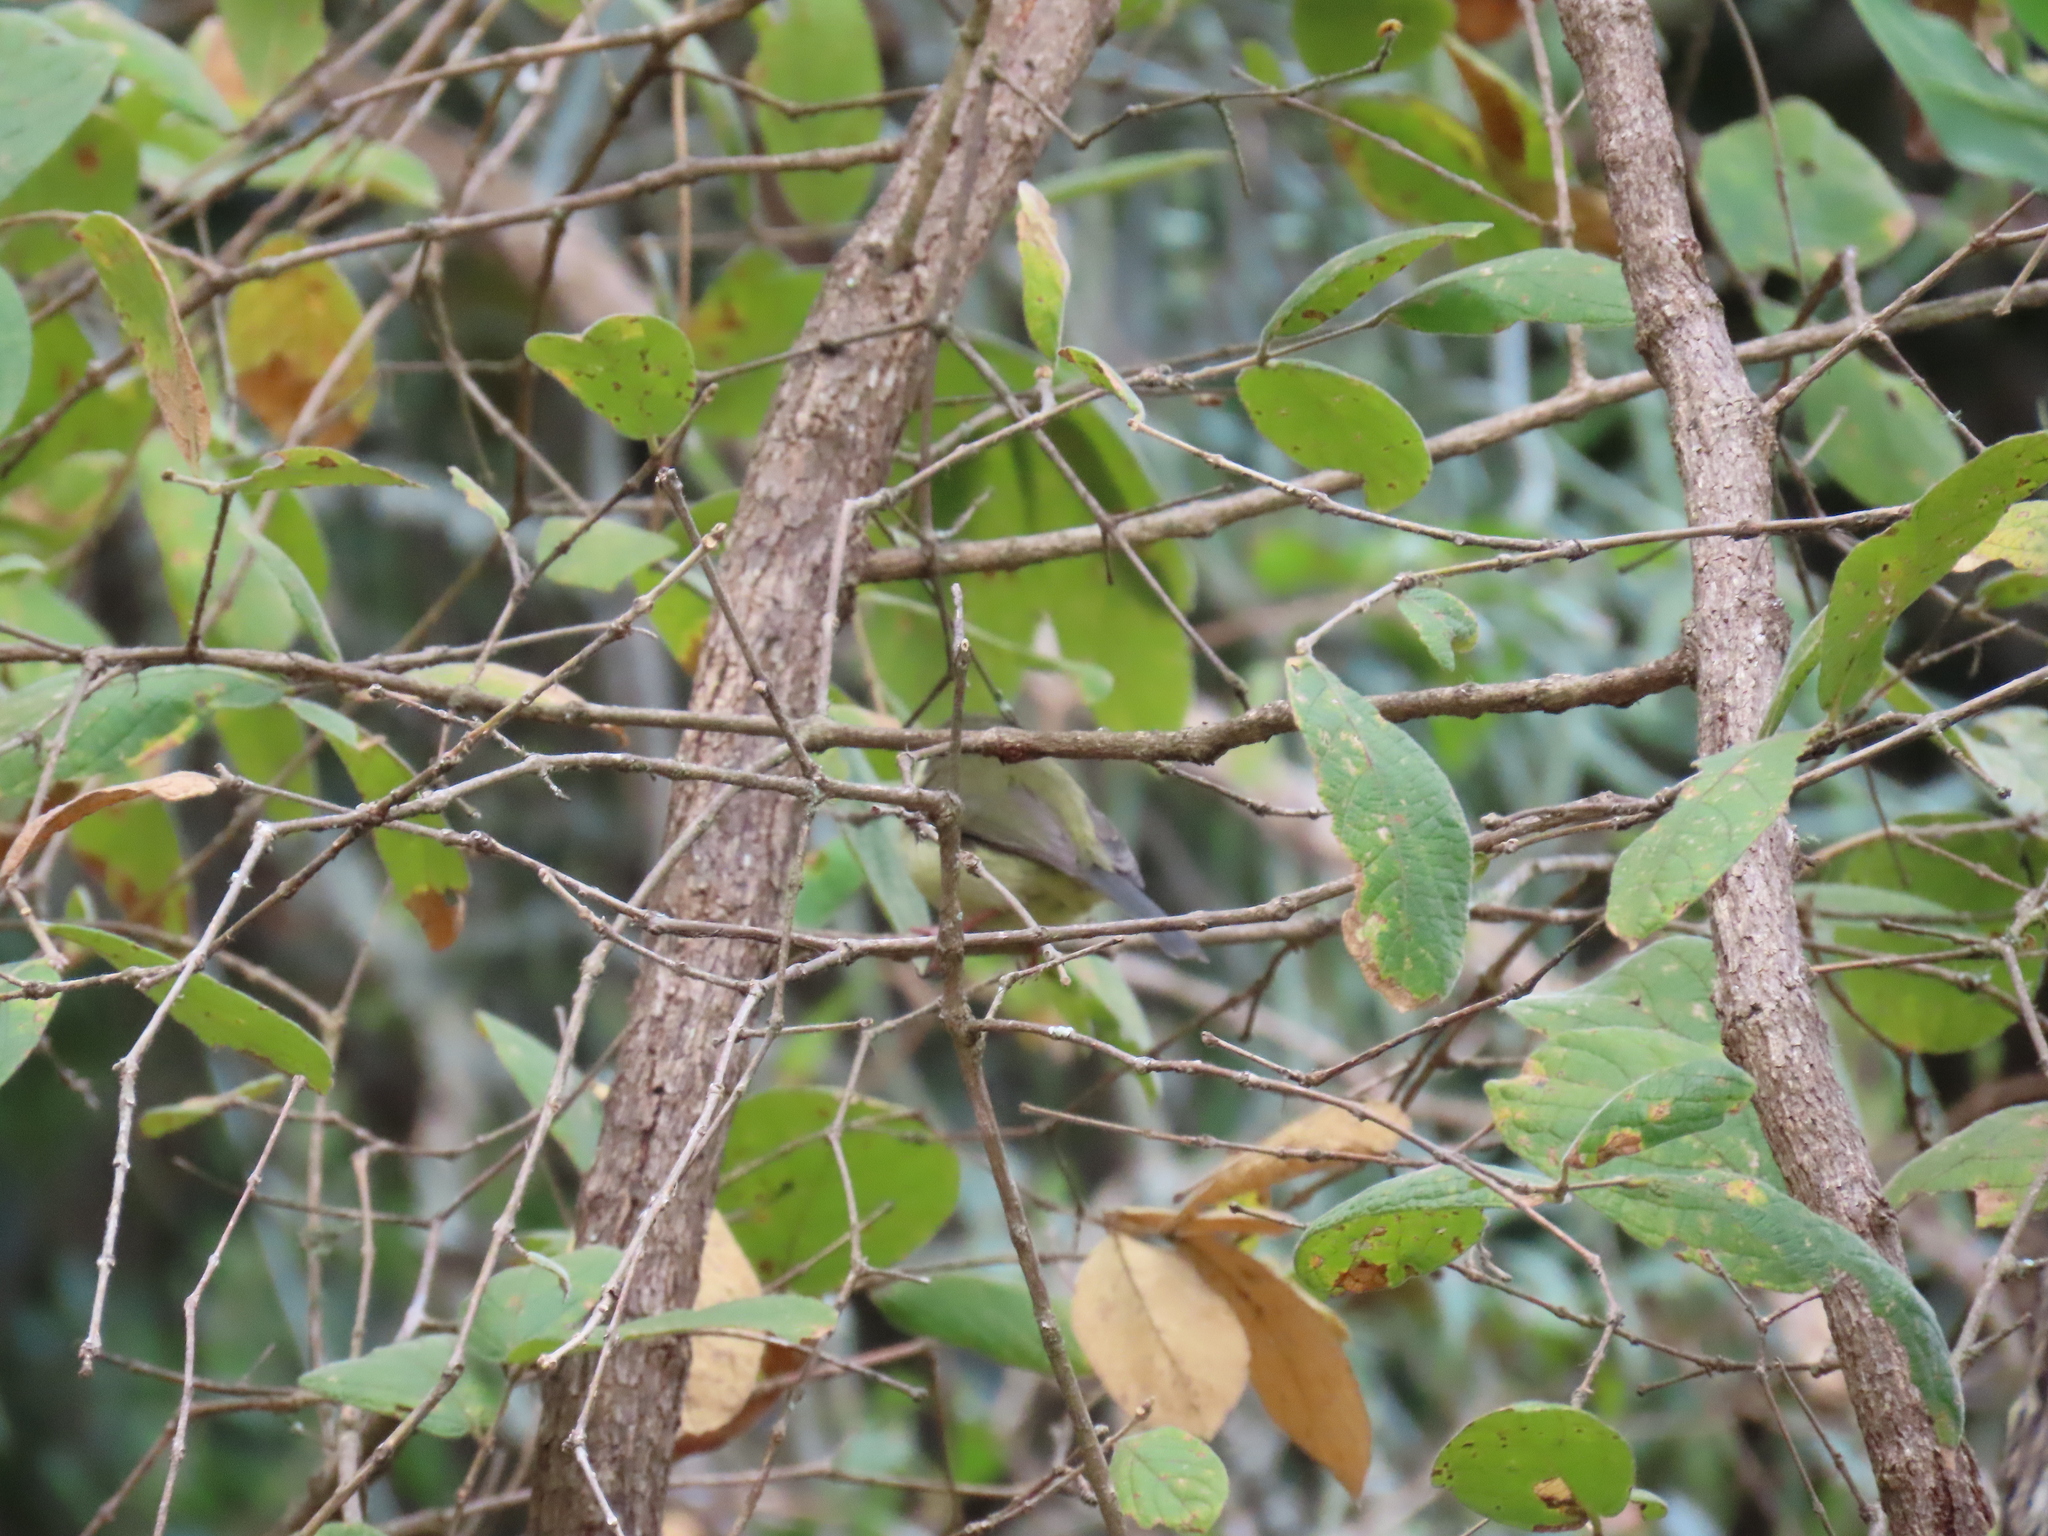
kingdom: Animalia
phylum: Chordata
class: Aves
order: Passeriformes
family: Cisticolidae
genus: Apalis
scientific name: Apalis thoracica
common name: Bar-throated apalis
